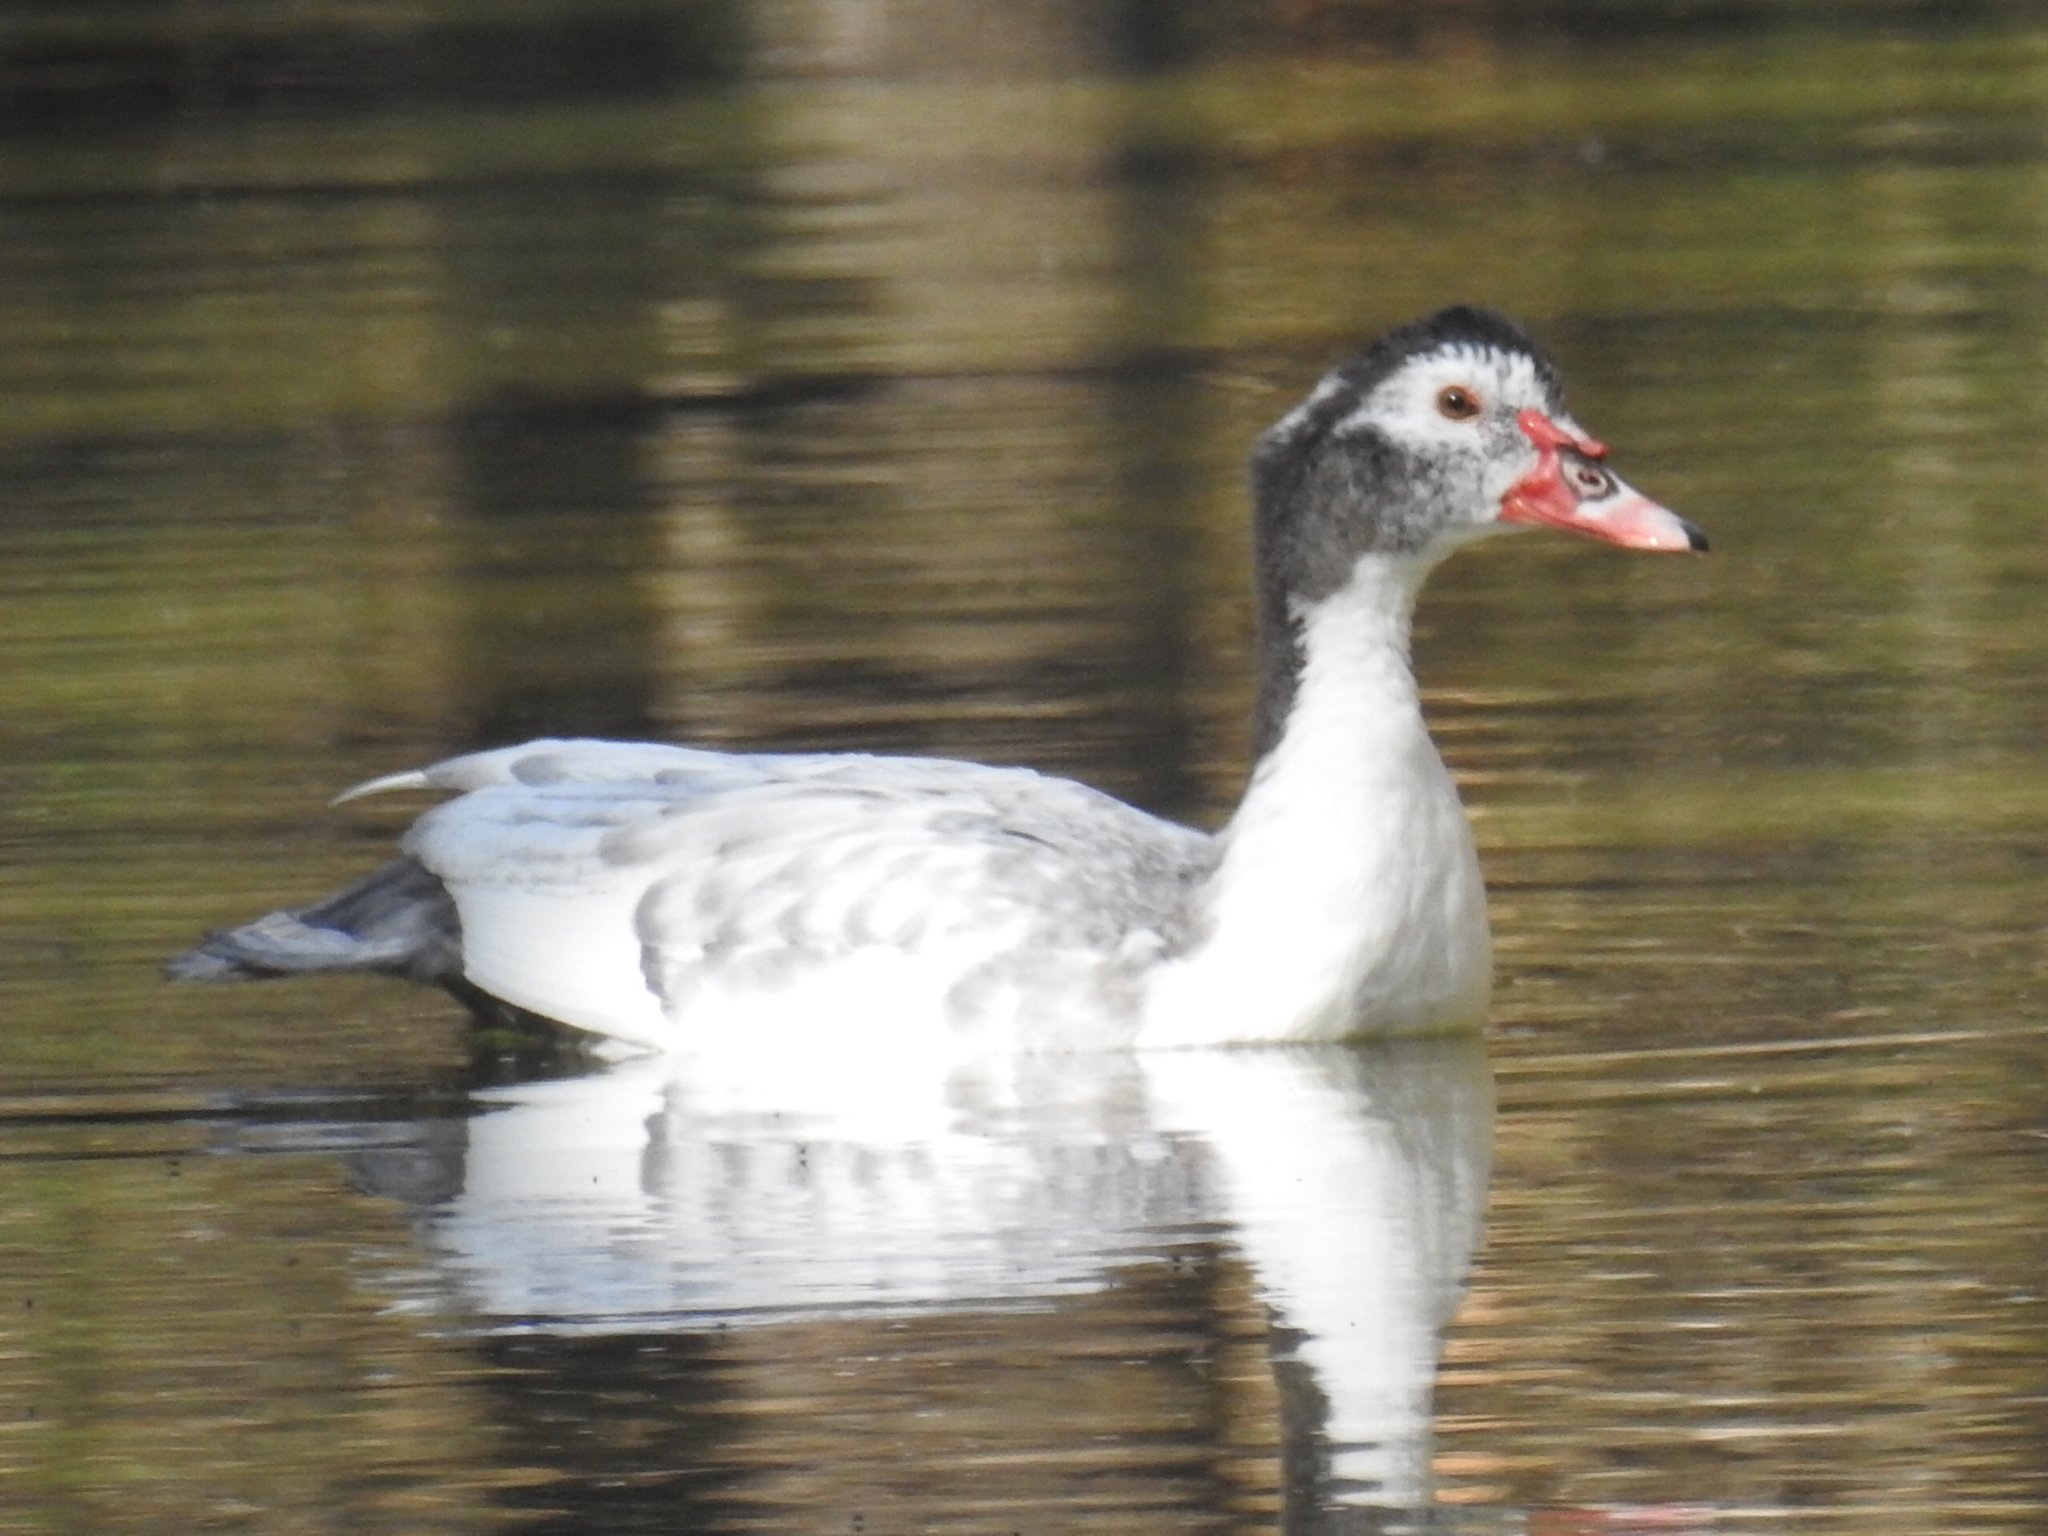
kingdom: Animalia
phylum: Chordata
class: Aves
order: Anseriformes
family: Anatidae
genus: Cairina
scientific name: Cairina moschata
